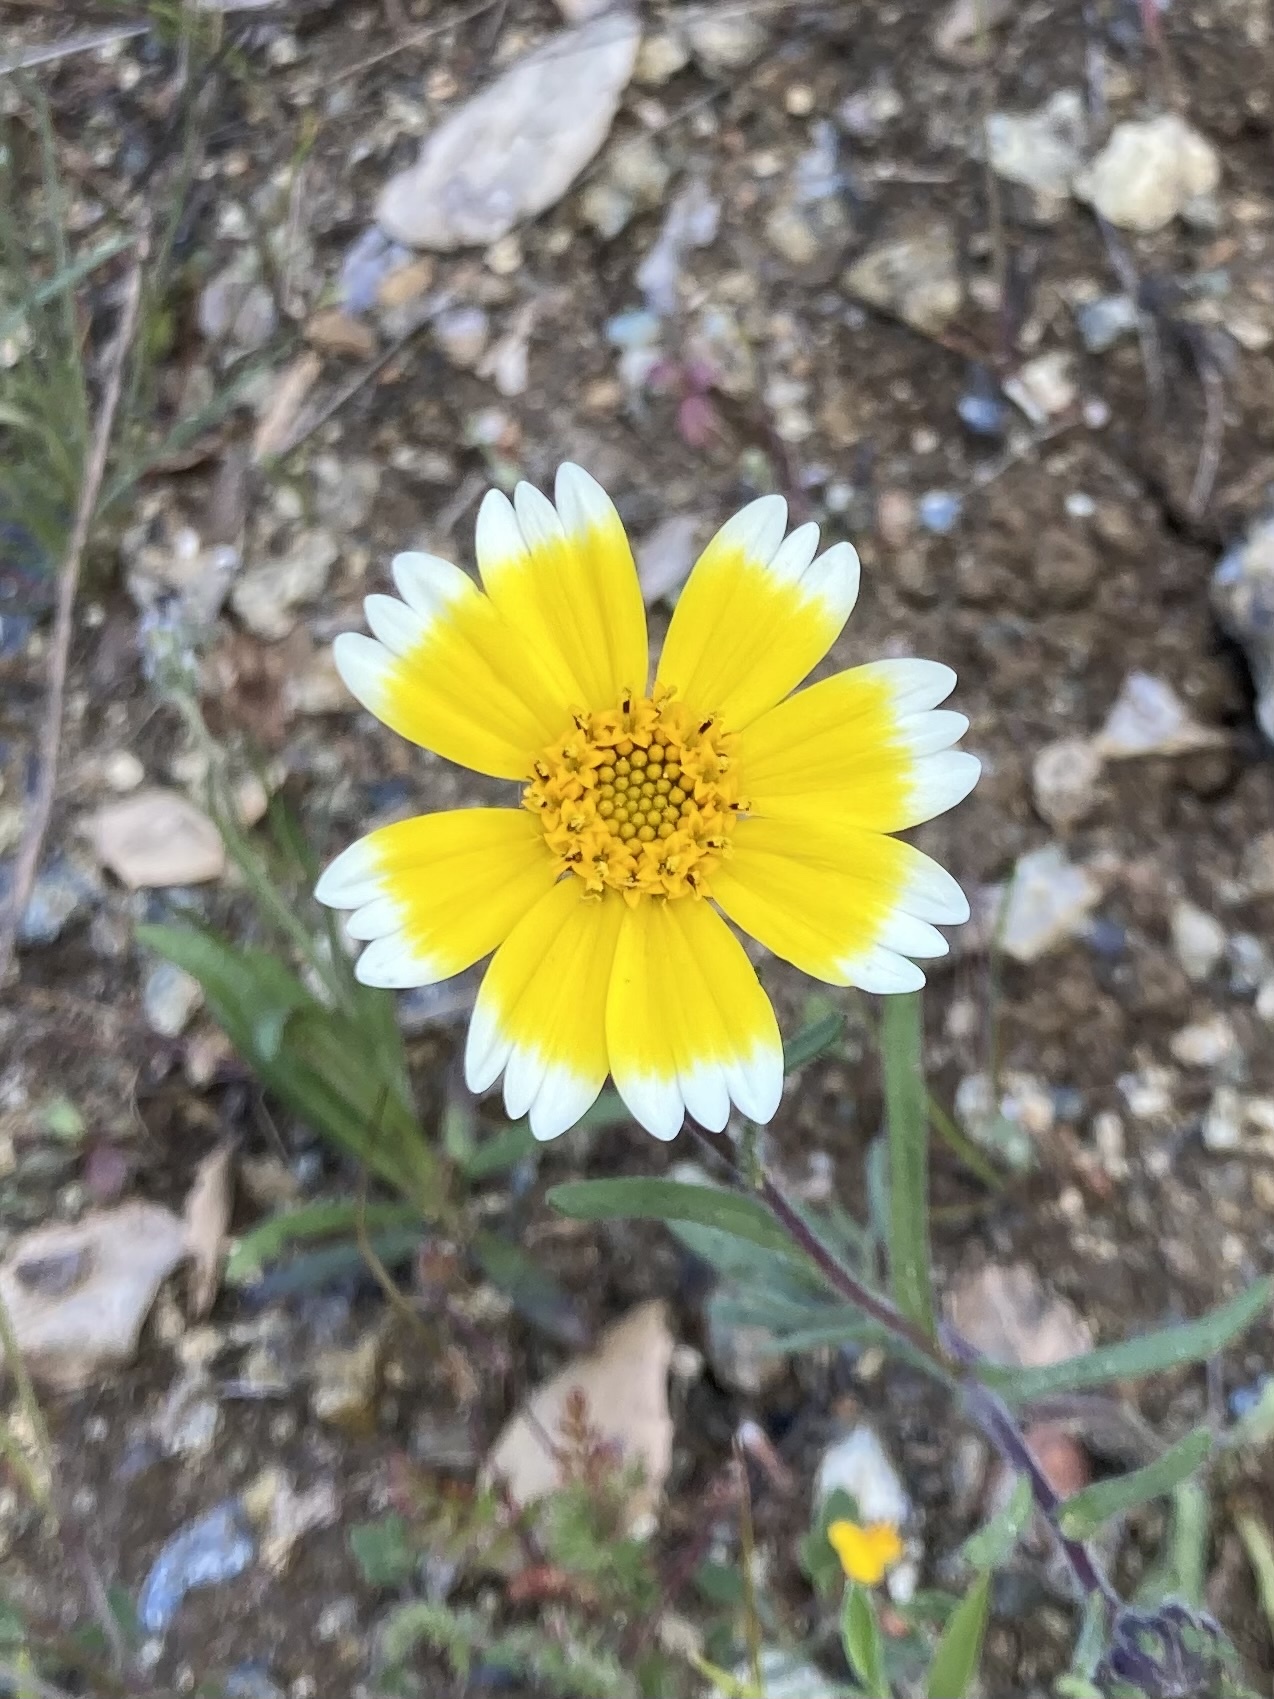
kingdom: Plantae
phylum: Tracheophyta
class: Magnoliopsida
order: Asterales
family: Asteraceae
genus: Layia
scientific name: Layia platyglossa
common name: Tidy-tips
